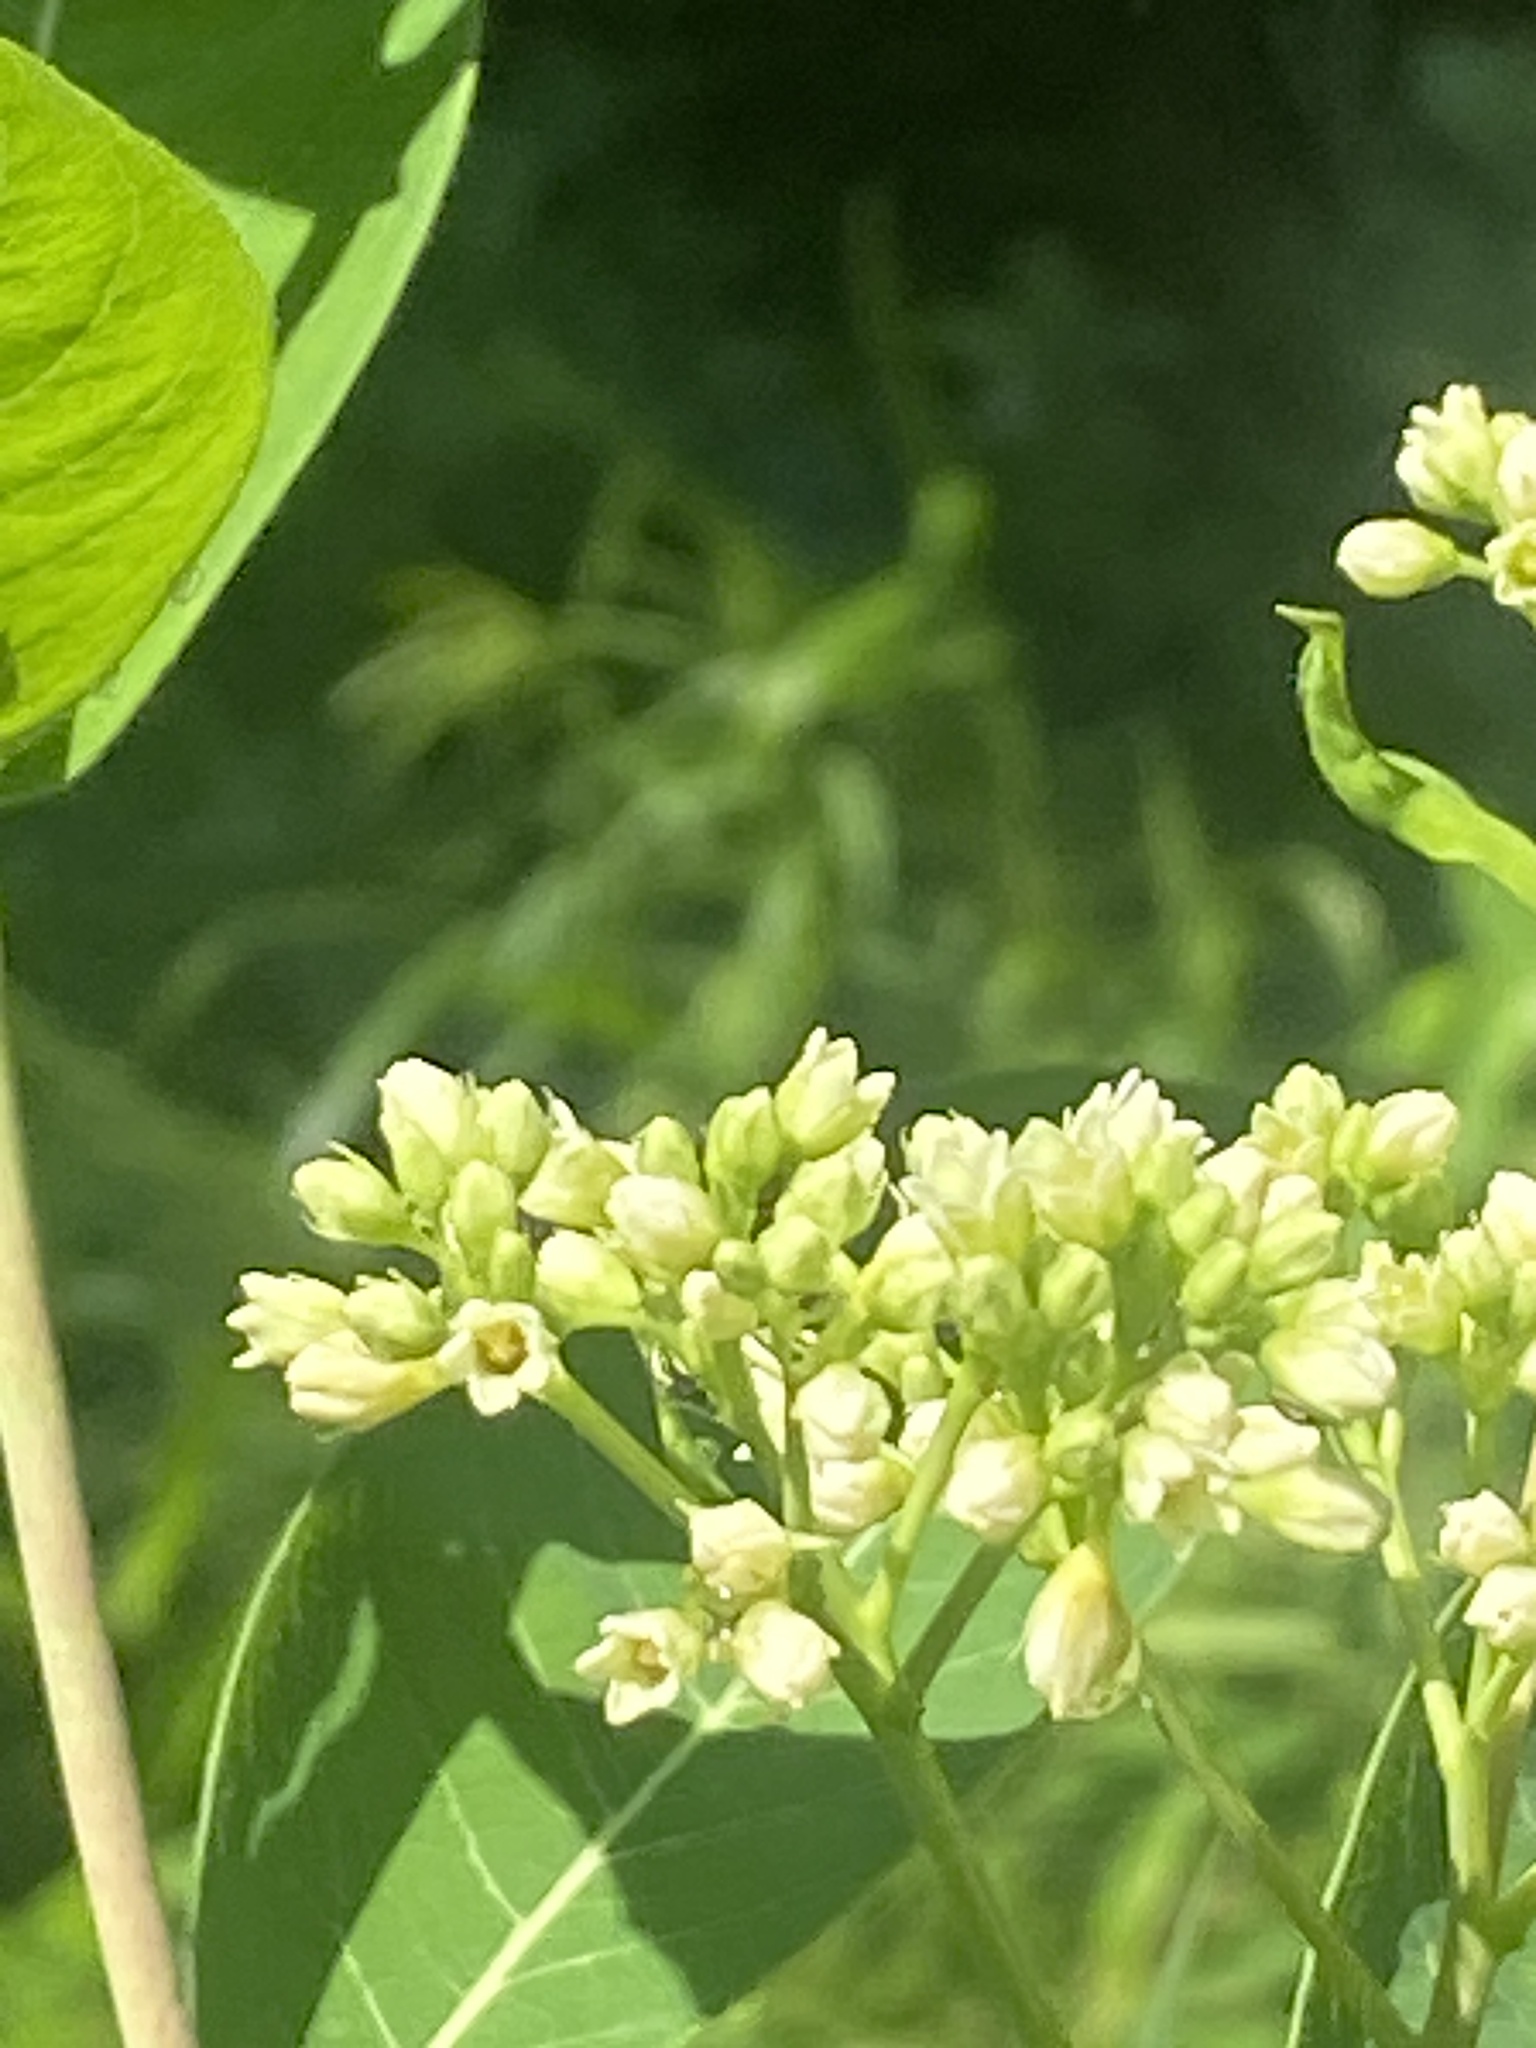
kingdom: Plantae
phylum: Tracheophyta
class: Magnoliopsida
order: Gentianales
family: Apocynaceae
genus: Apocynum
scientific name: Apocynum cannabinum
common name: Hemp dogbane
